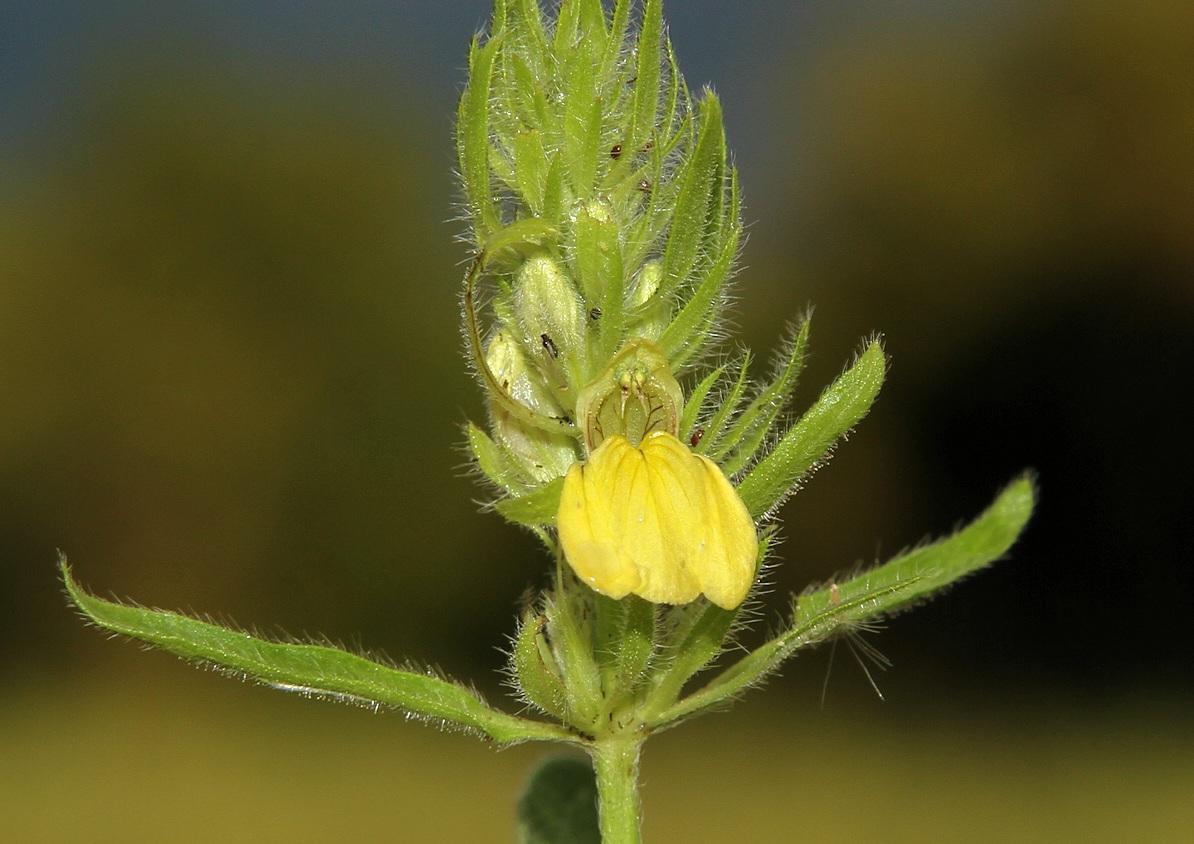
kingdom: Plantae
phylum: Tracheophyta
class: Magnoliopsida
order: Lamiales
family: Acanthaceae
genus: Justicia
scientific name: Justicia flava
